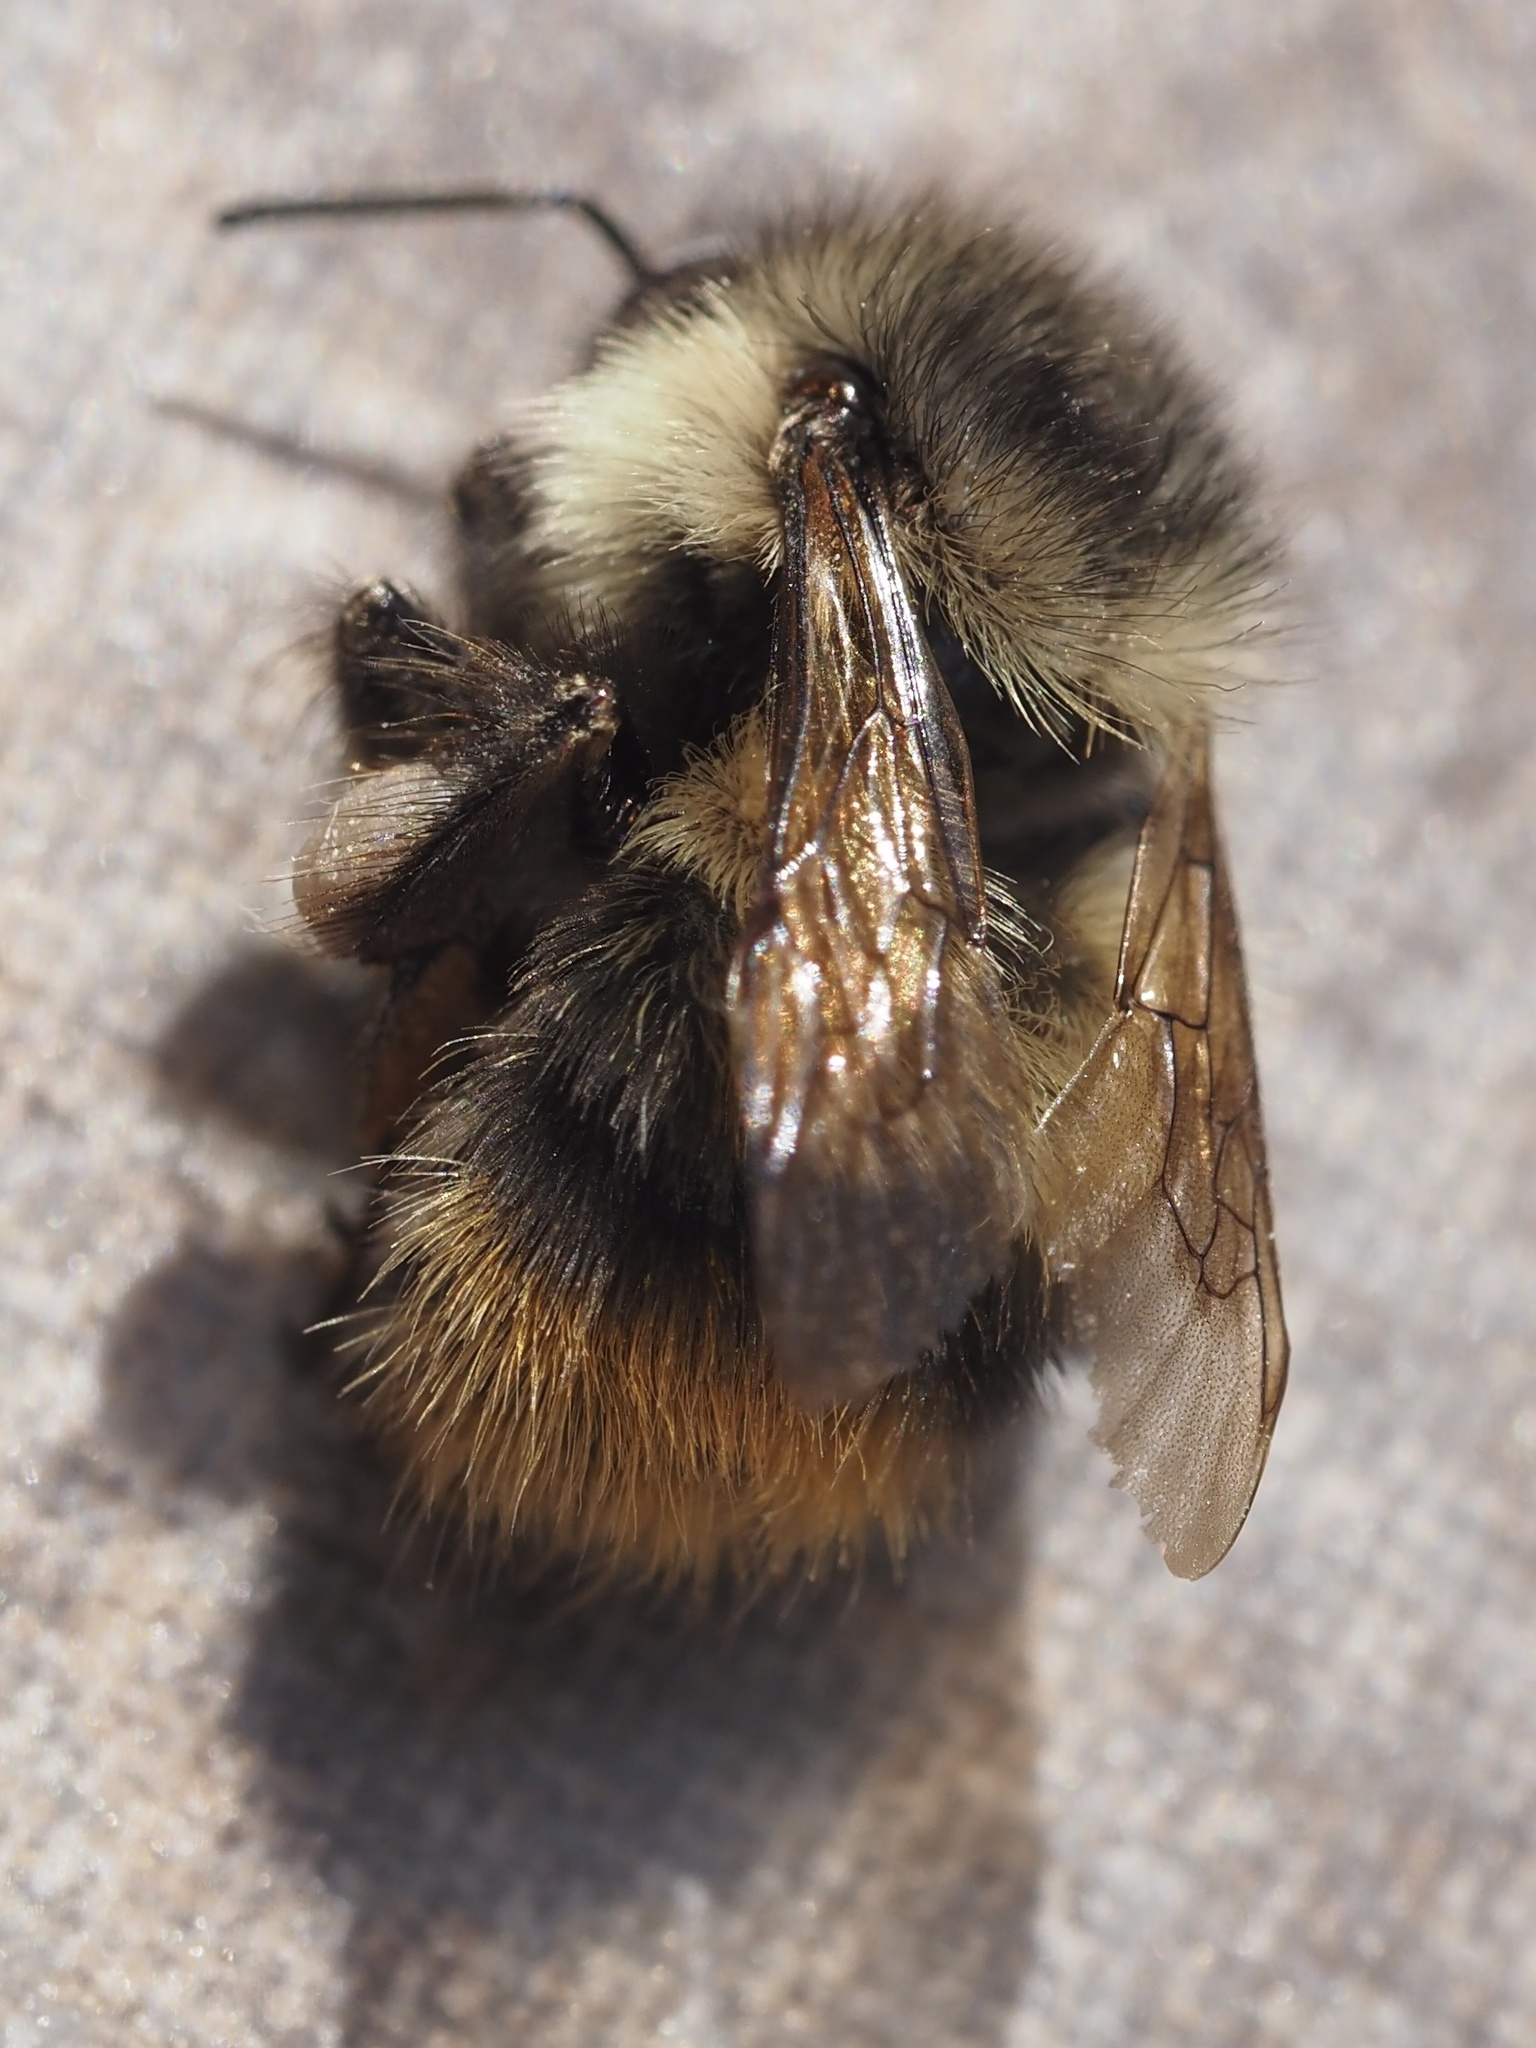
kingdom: Animalia
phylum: Arthropoda
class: Insecta
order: Hymenoptera
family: Apidae
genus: Bombus
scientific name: Bombus mixtus
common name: Fuzzy-horned bumble bee
